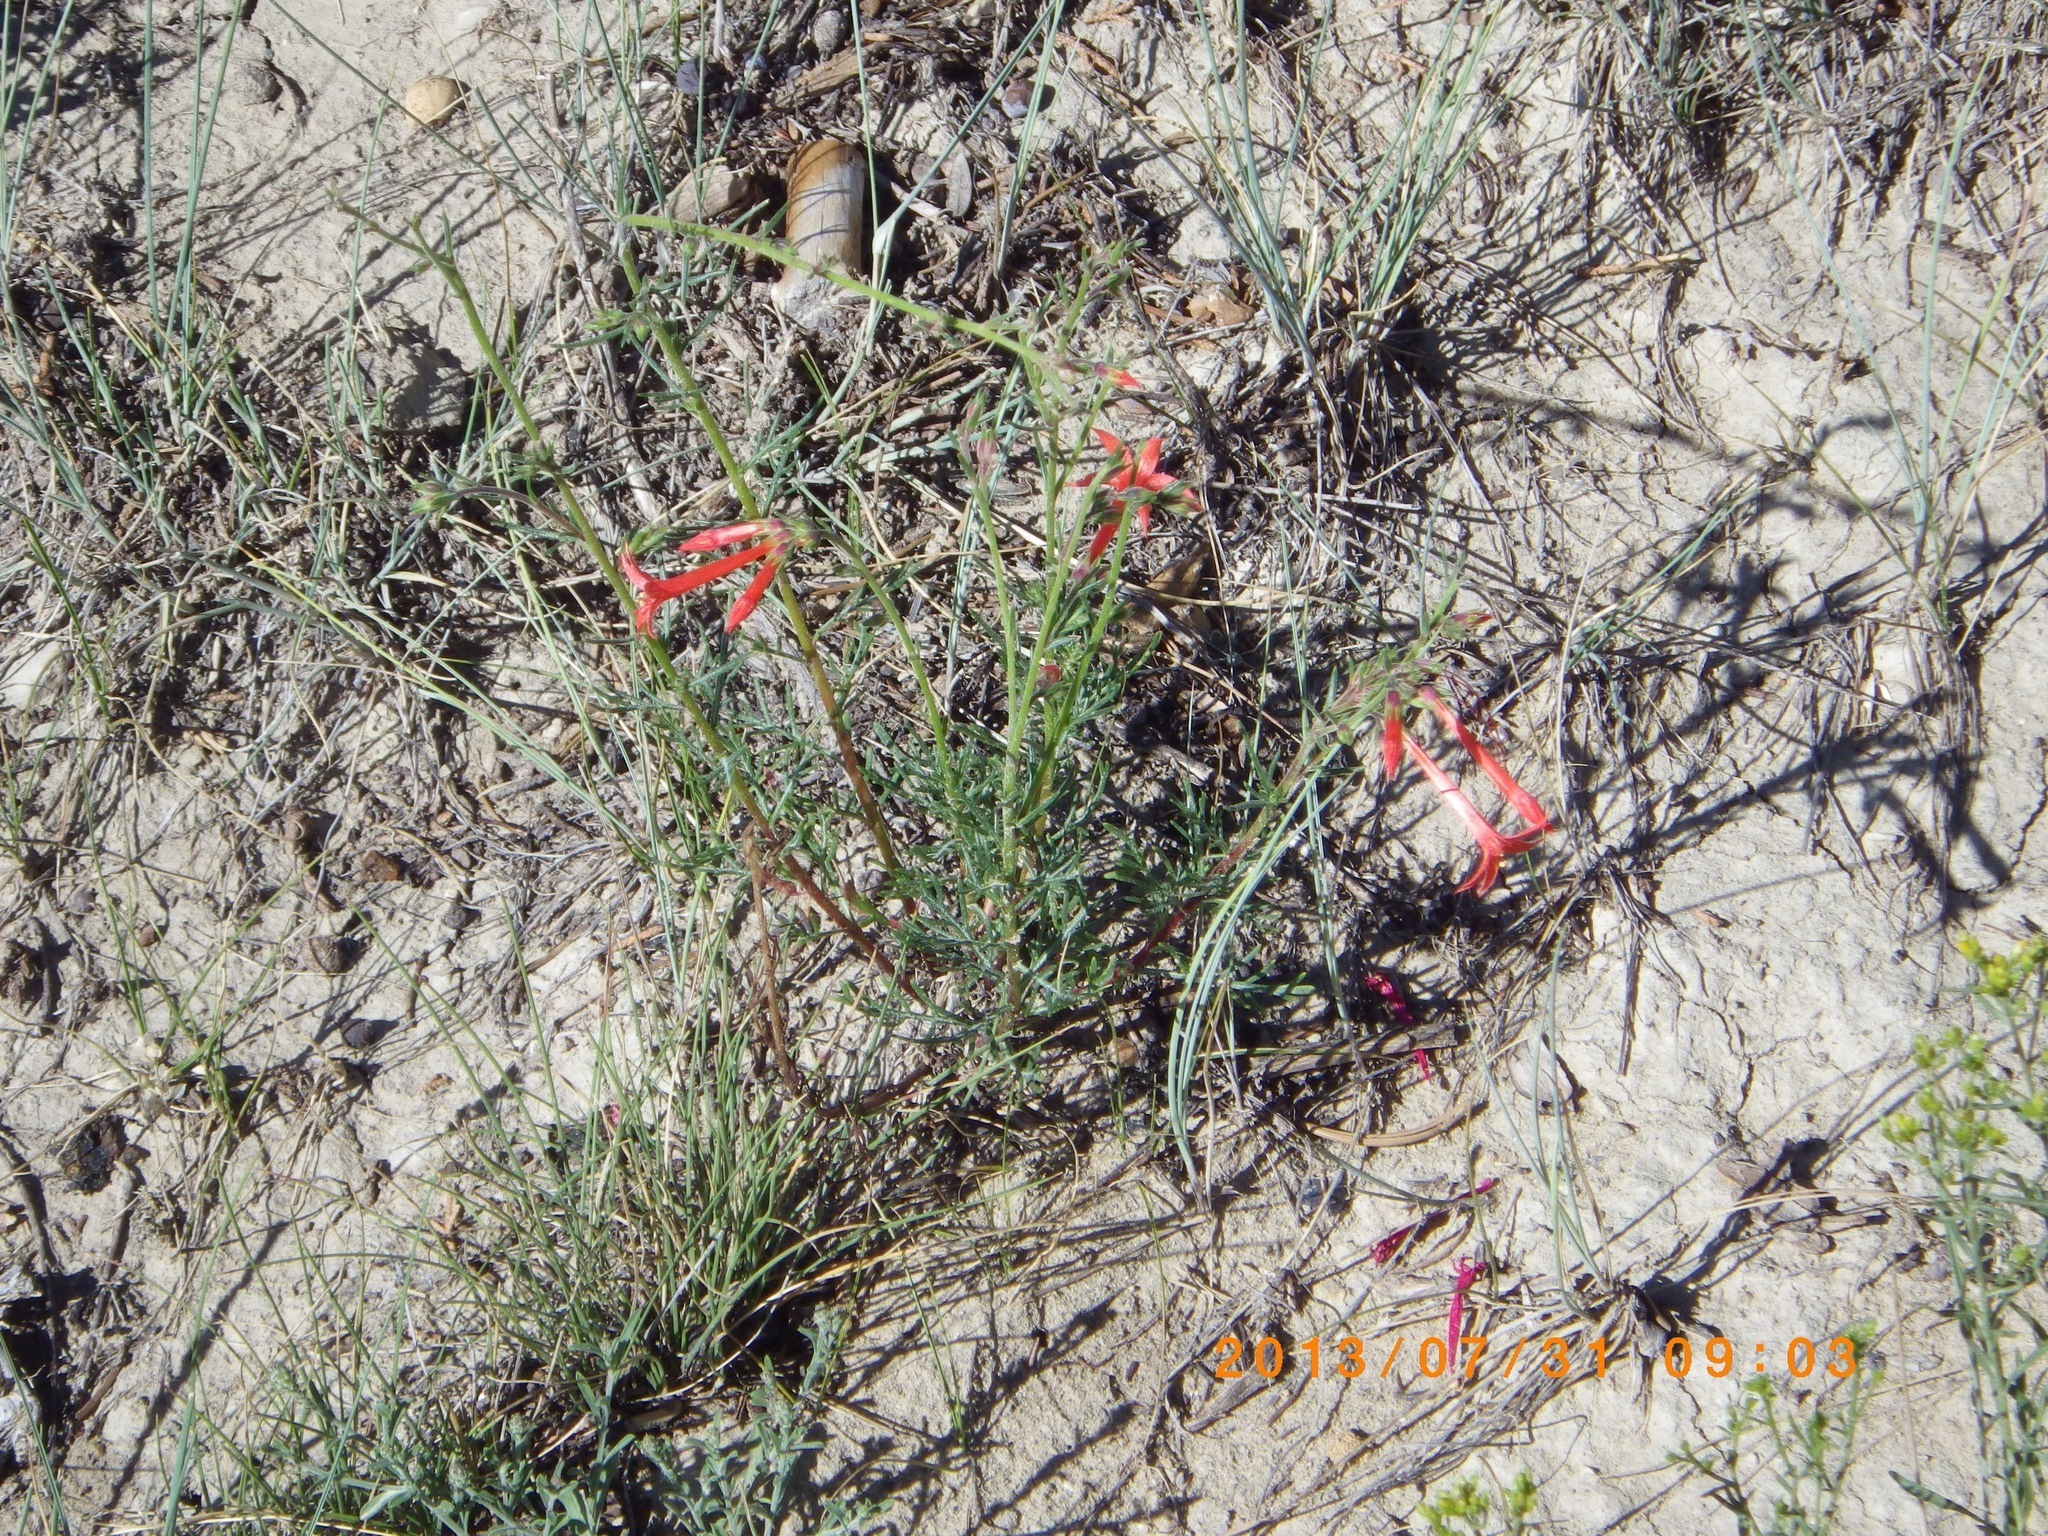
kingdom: Plantae
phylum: Tracheophyta
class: Magnoliopsida
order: Ericales
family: Polemoniaceae
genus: Ipomopsis
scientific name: Ipomopsis aggregata
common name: Scarlet gilia
